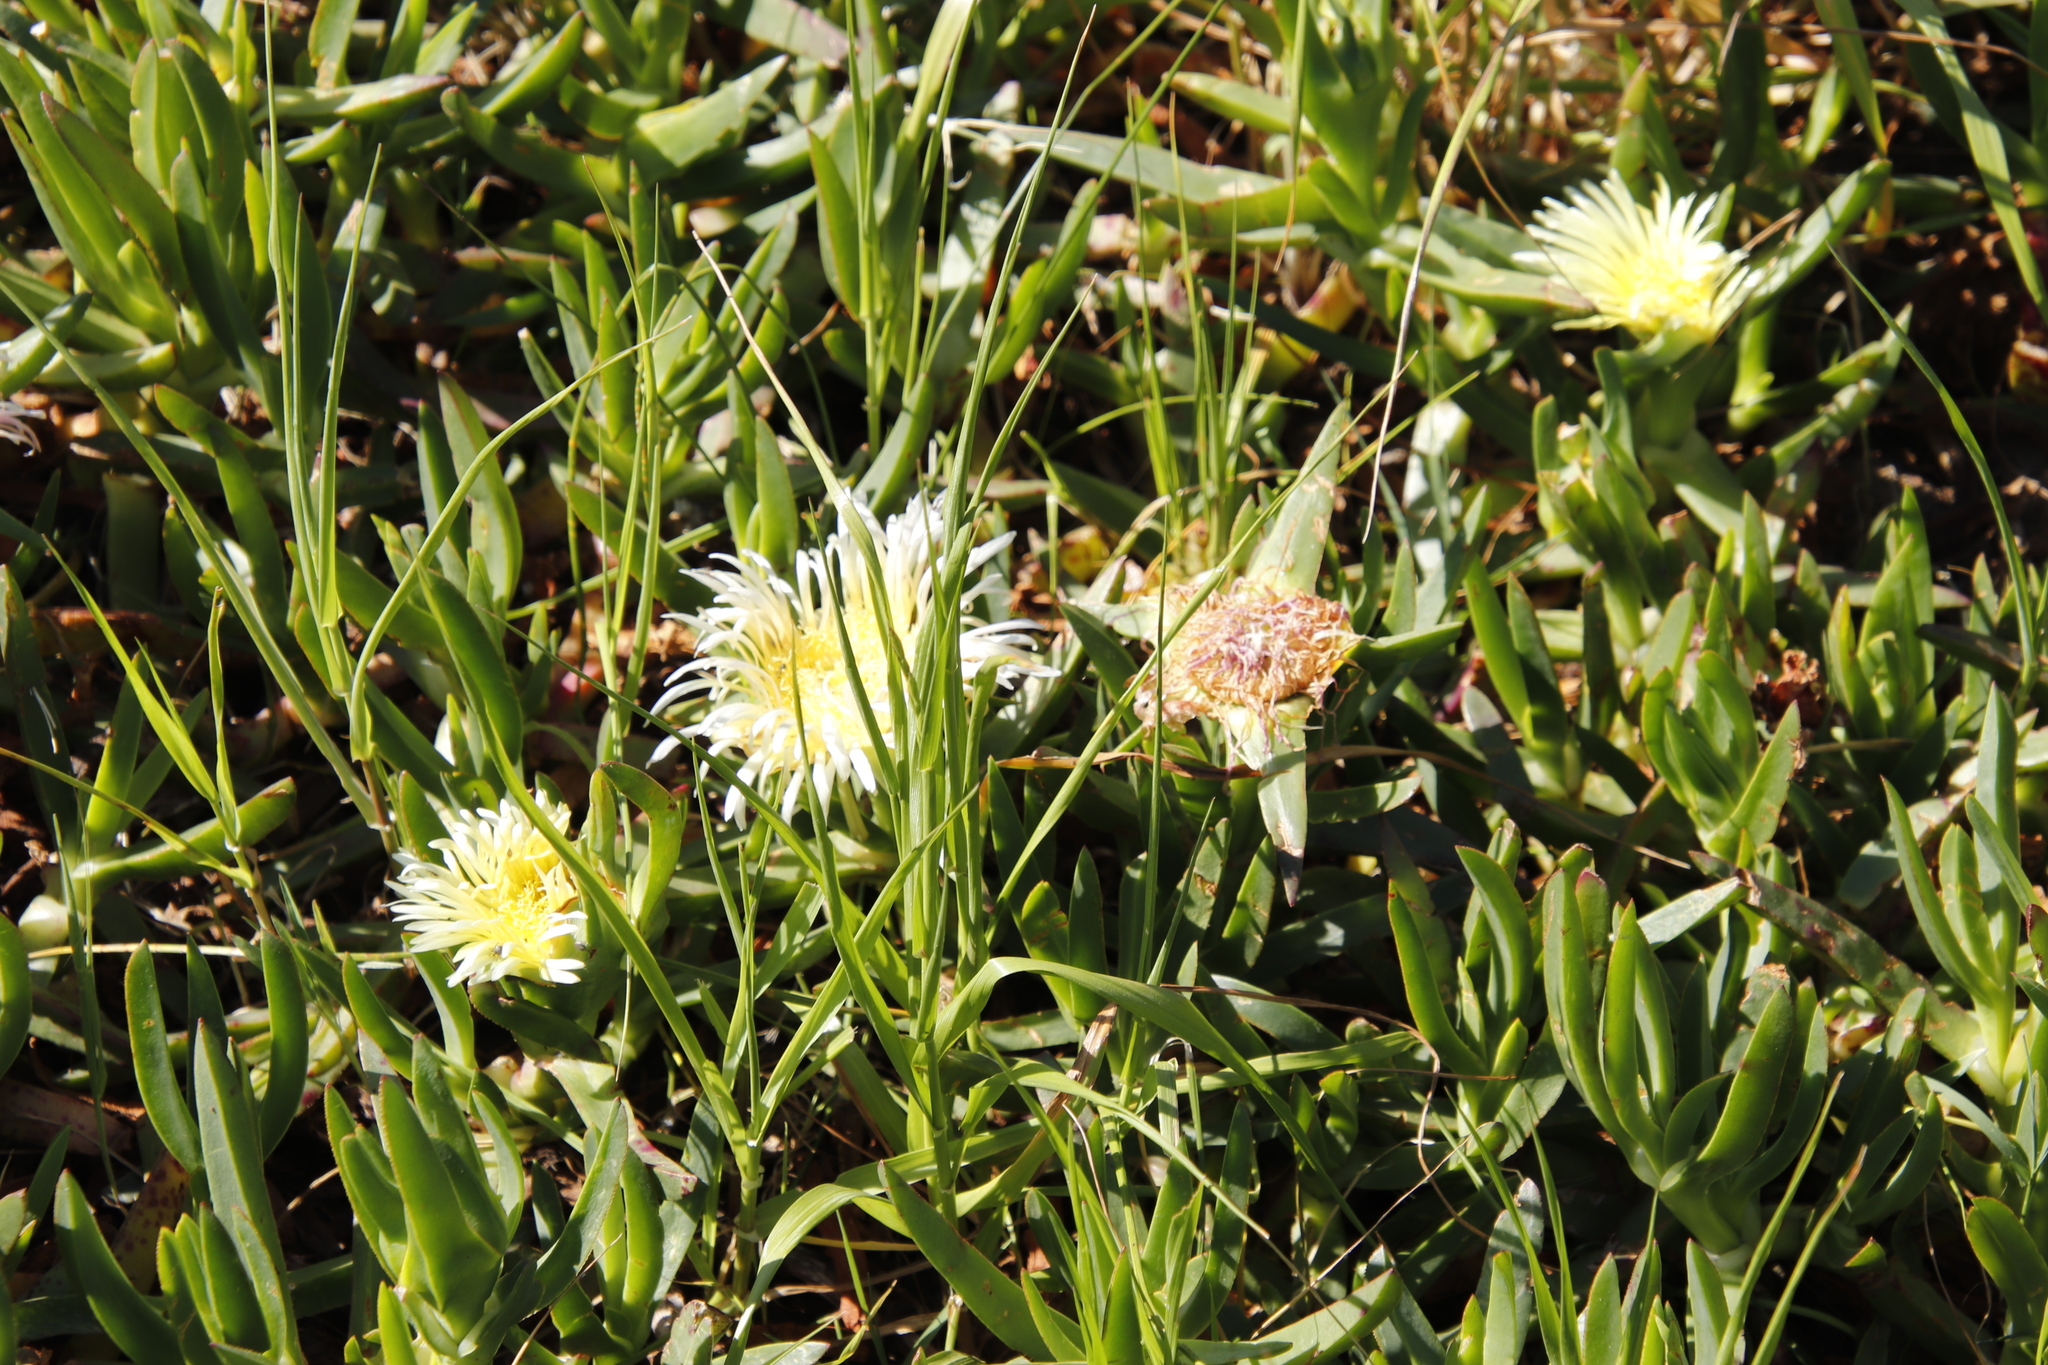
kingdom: Plantae
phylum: Tracheophyta
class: Magnoliopsida
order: Caryophyllales
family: Aizoaceae
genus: Carpobrotus
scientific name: Carpobrotus edulis
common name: Hottentot-fig
